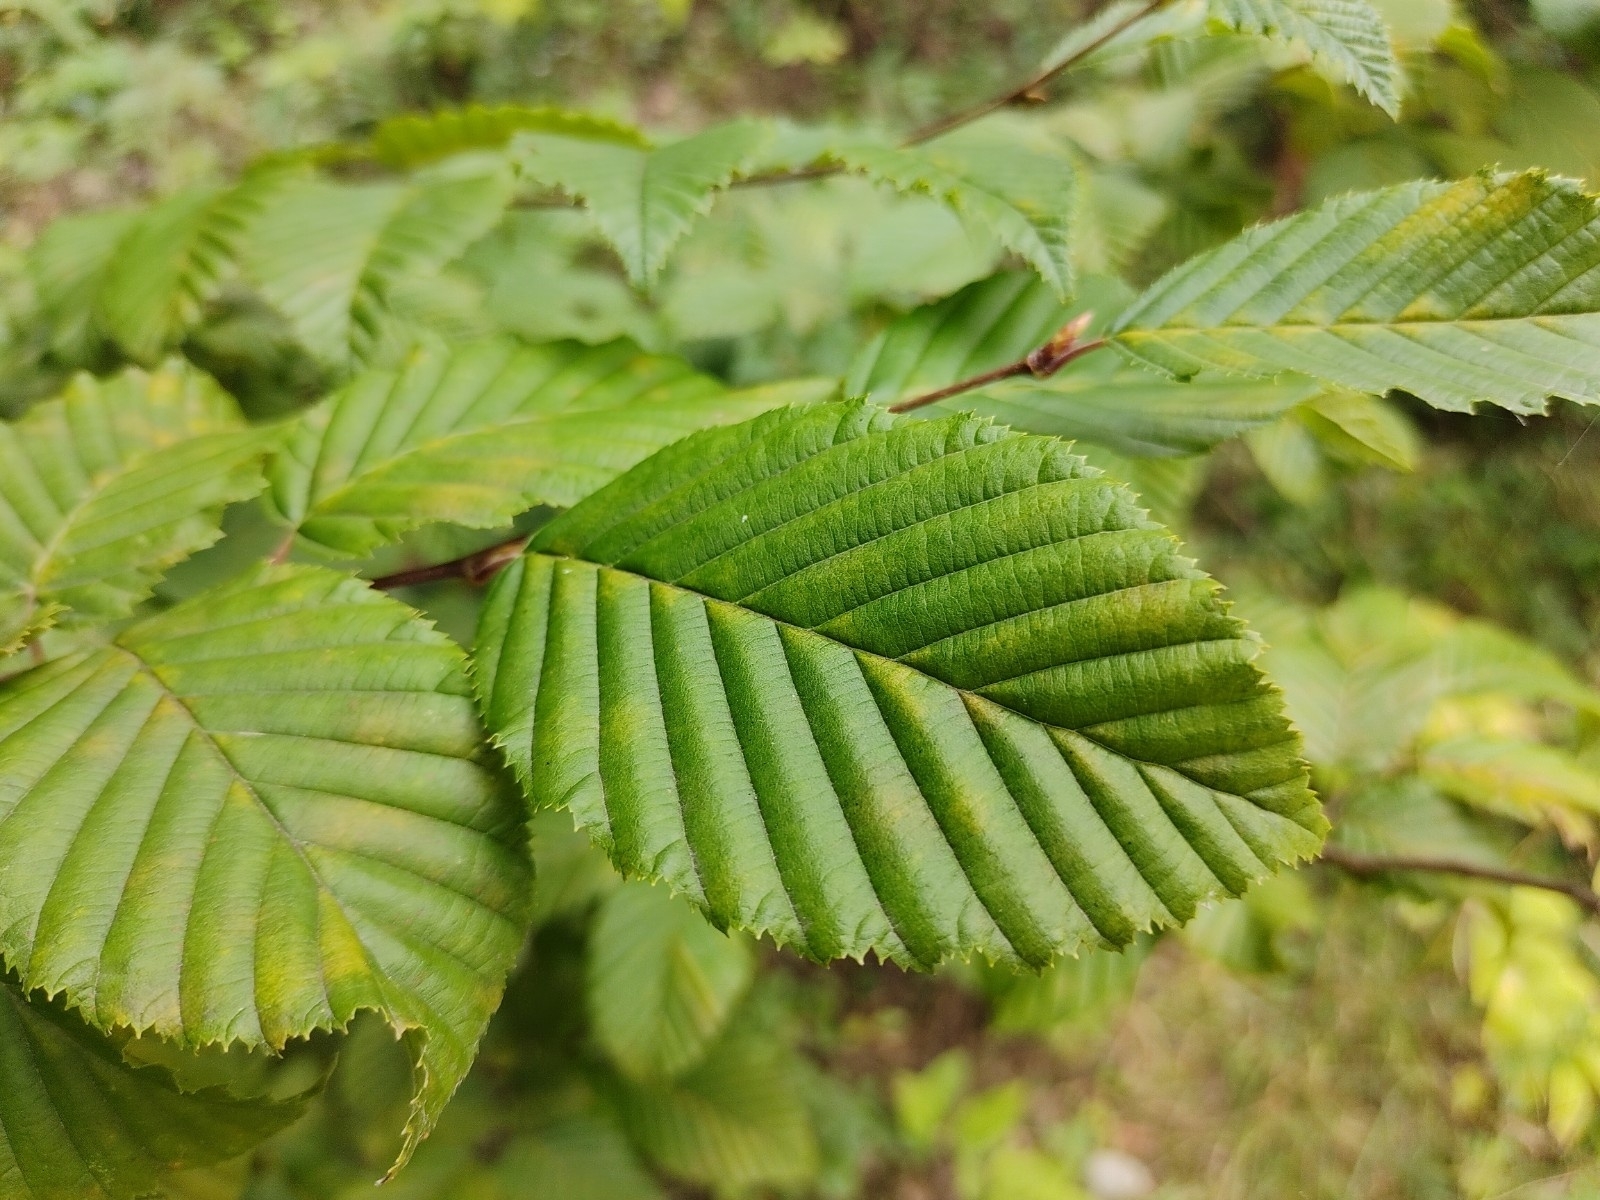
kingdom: Plantae
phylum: Tracheophyta
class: Magnoliopsida
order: Fagales
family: Betulaceae
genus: Carpinus
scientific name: Carpinus betulus
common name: Hornbeam
